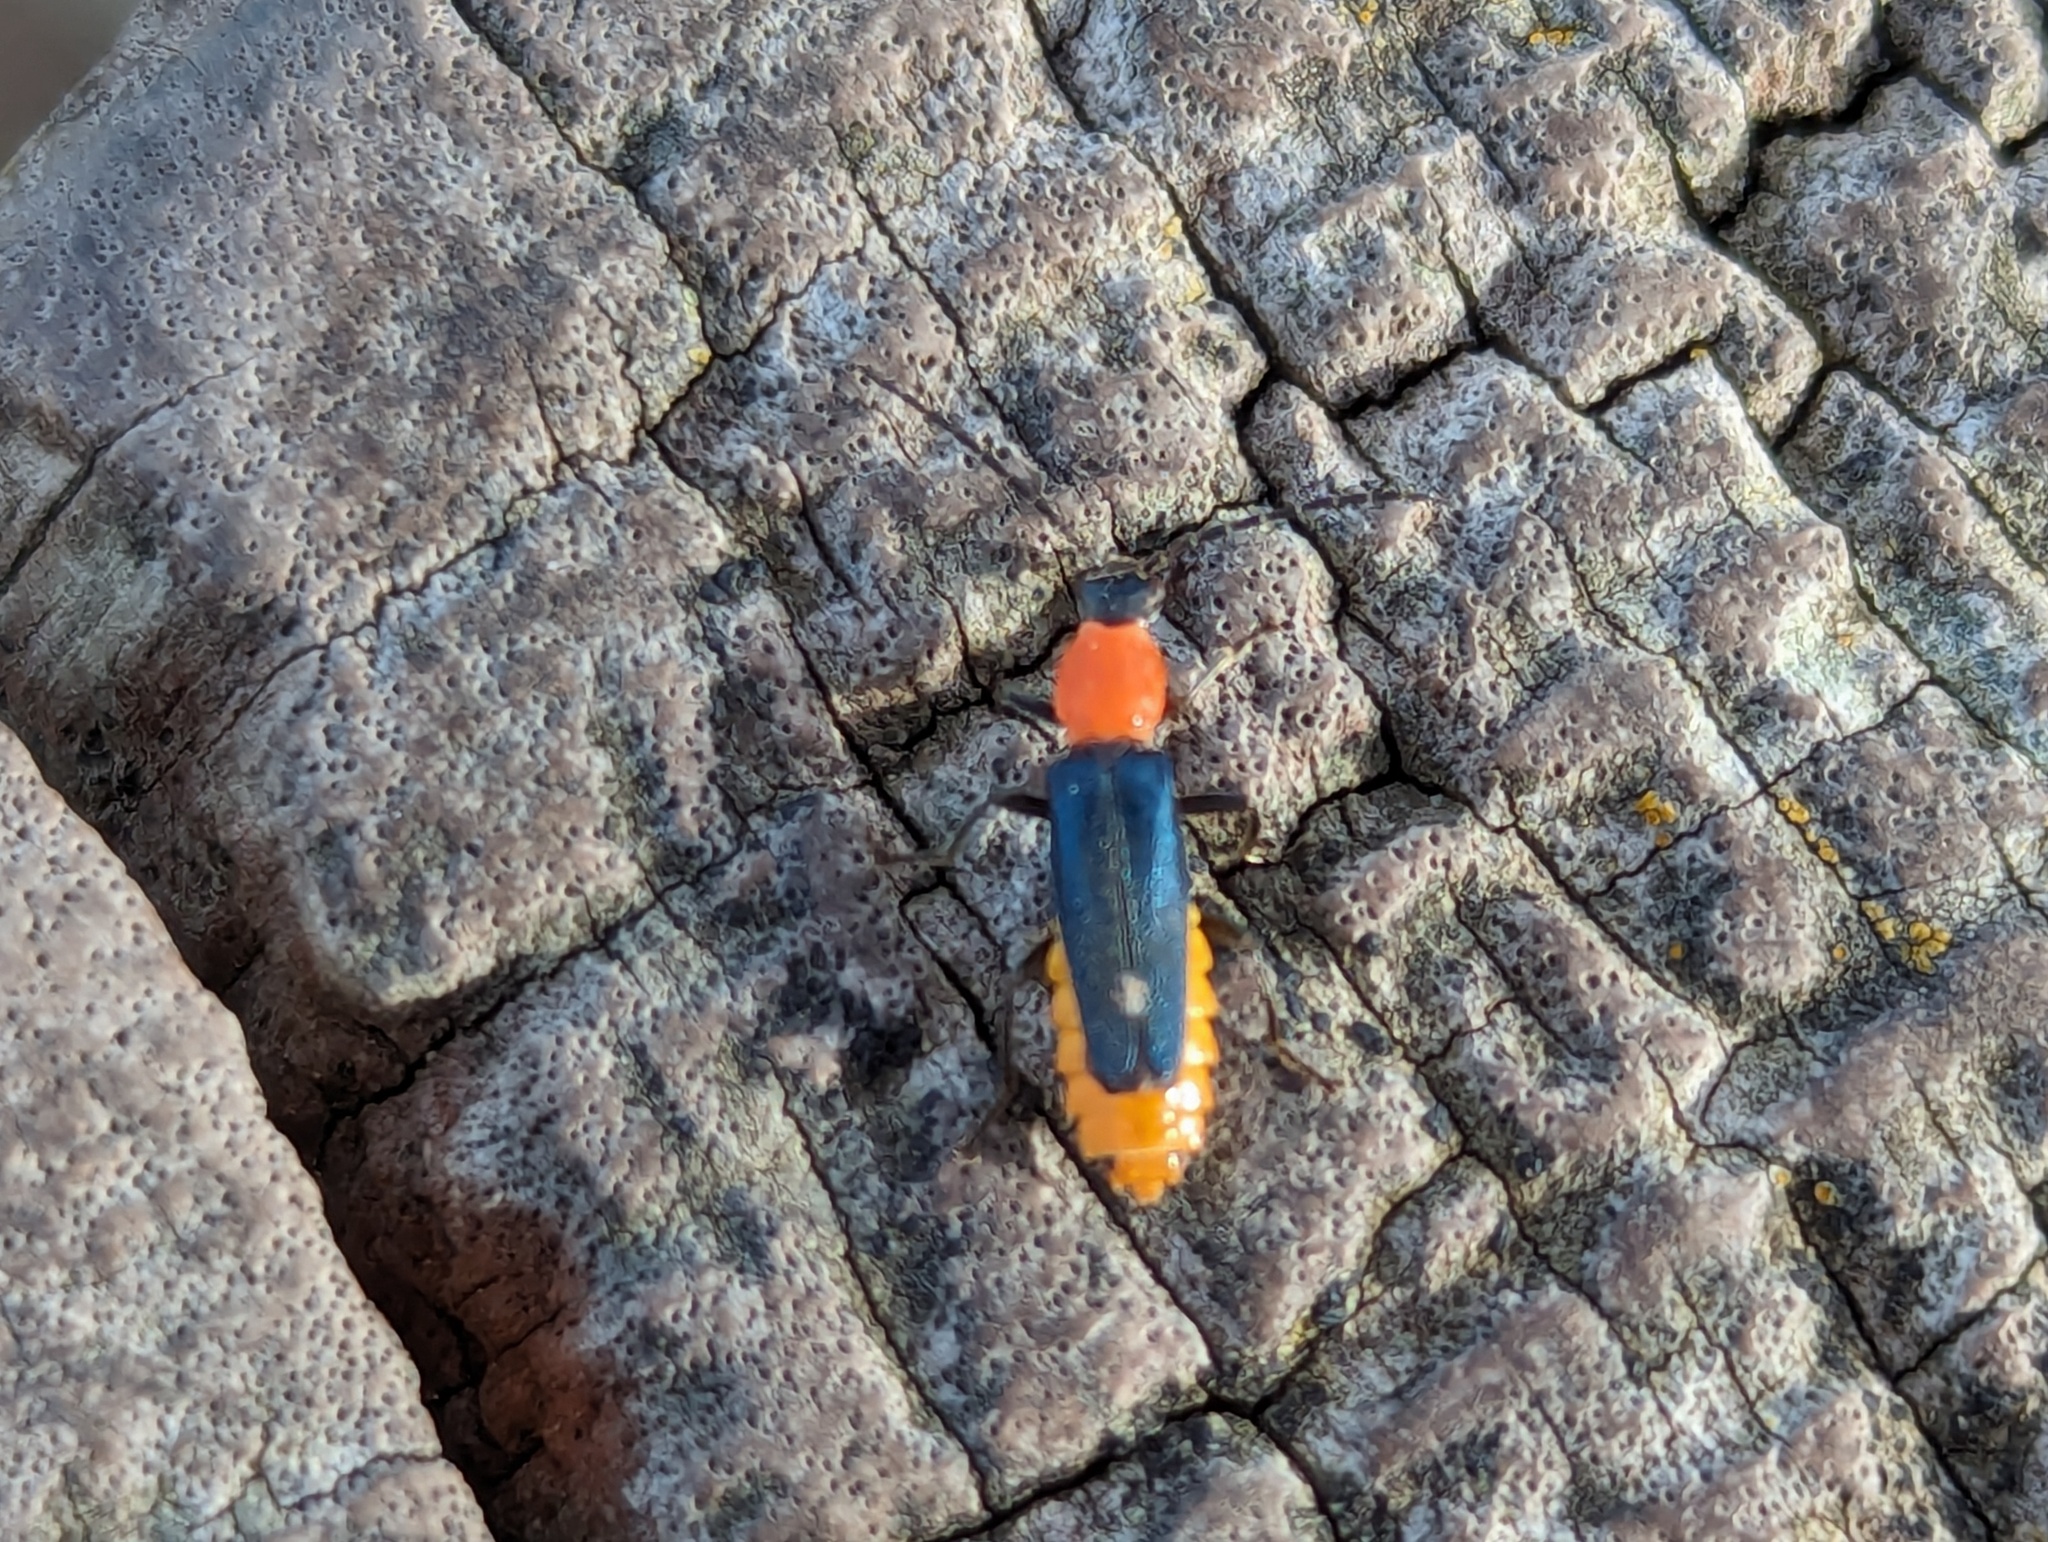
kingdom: Animalia
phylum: Arthropoda
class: Insecta
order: Coleoptera
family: Cantharidae
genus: Chauliognathus
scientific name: Chauliognathus
